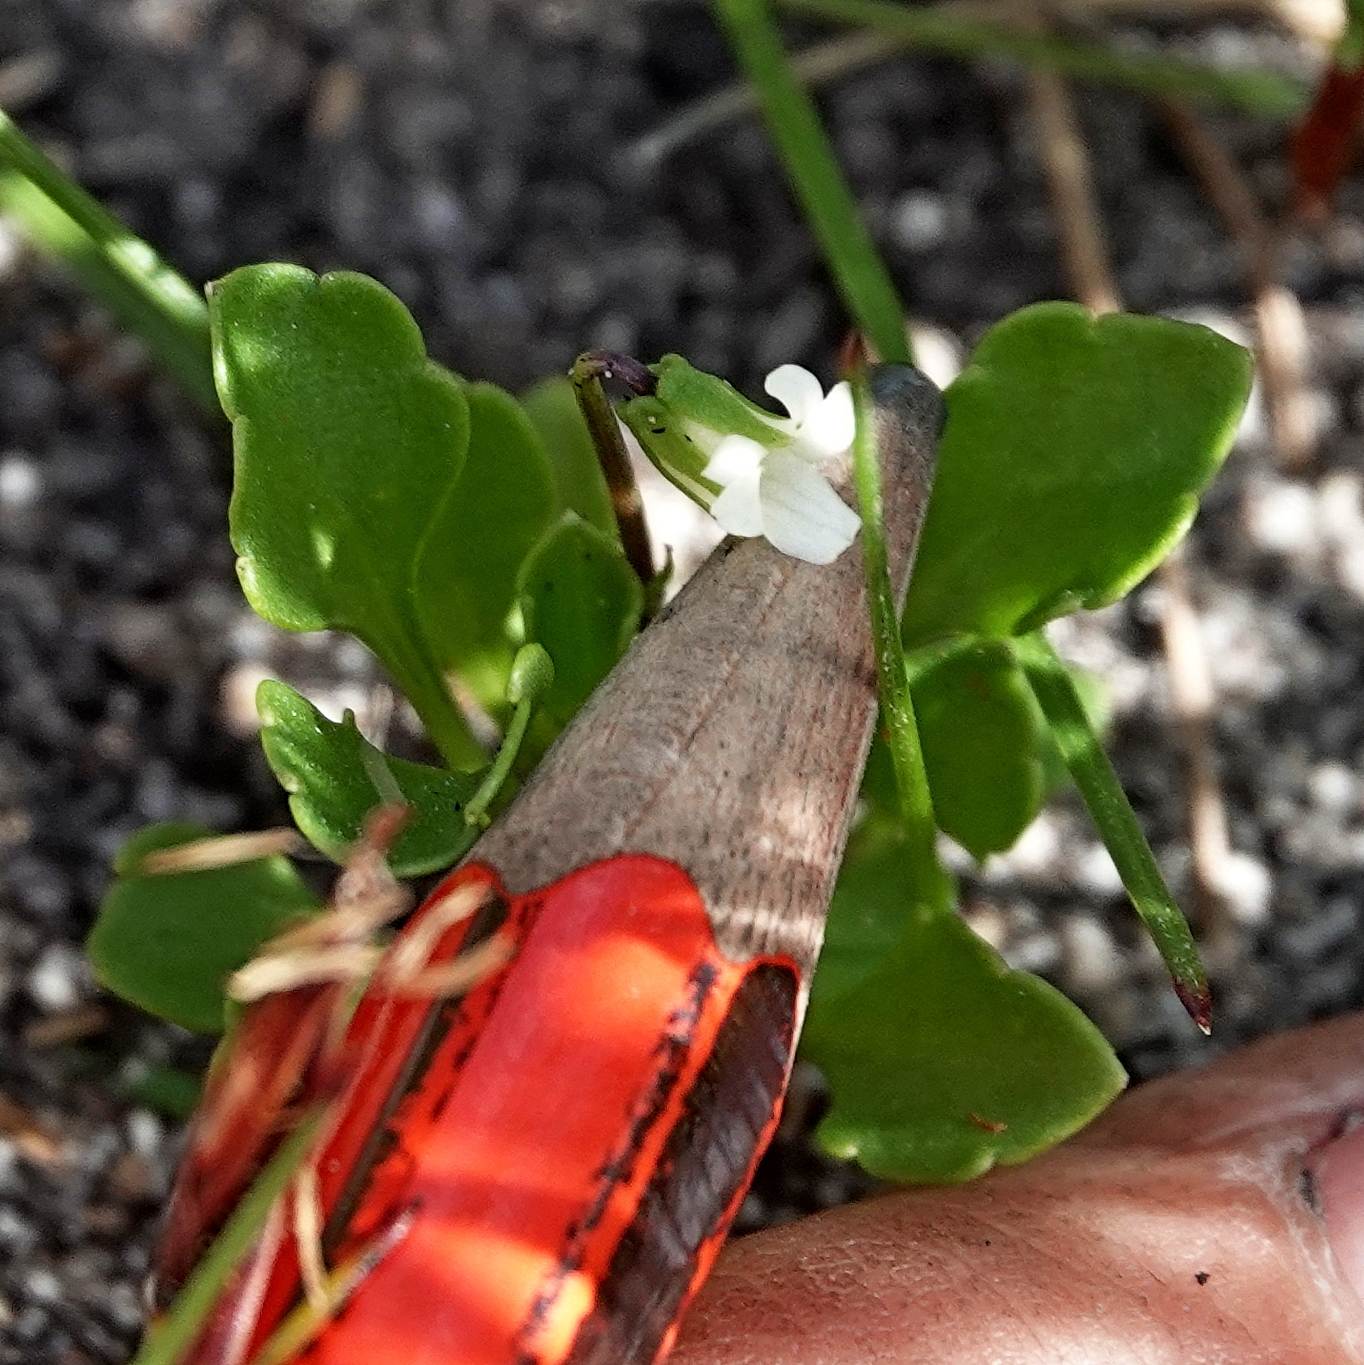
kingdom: Plantae
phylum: Tracheophyta
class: Magnoliopsida
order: Malpighiales
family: Violaceae
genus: Viola
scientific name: Viola cleistogamoides
